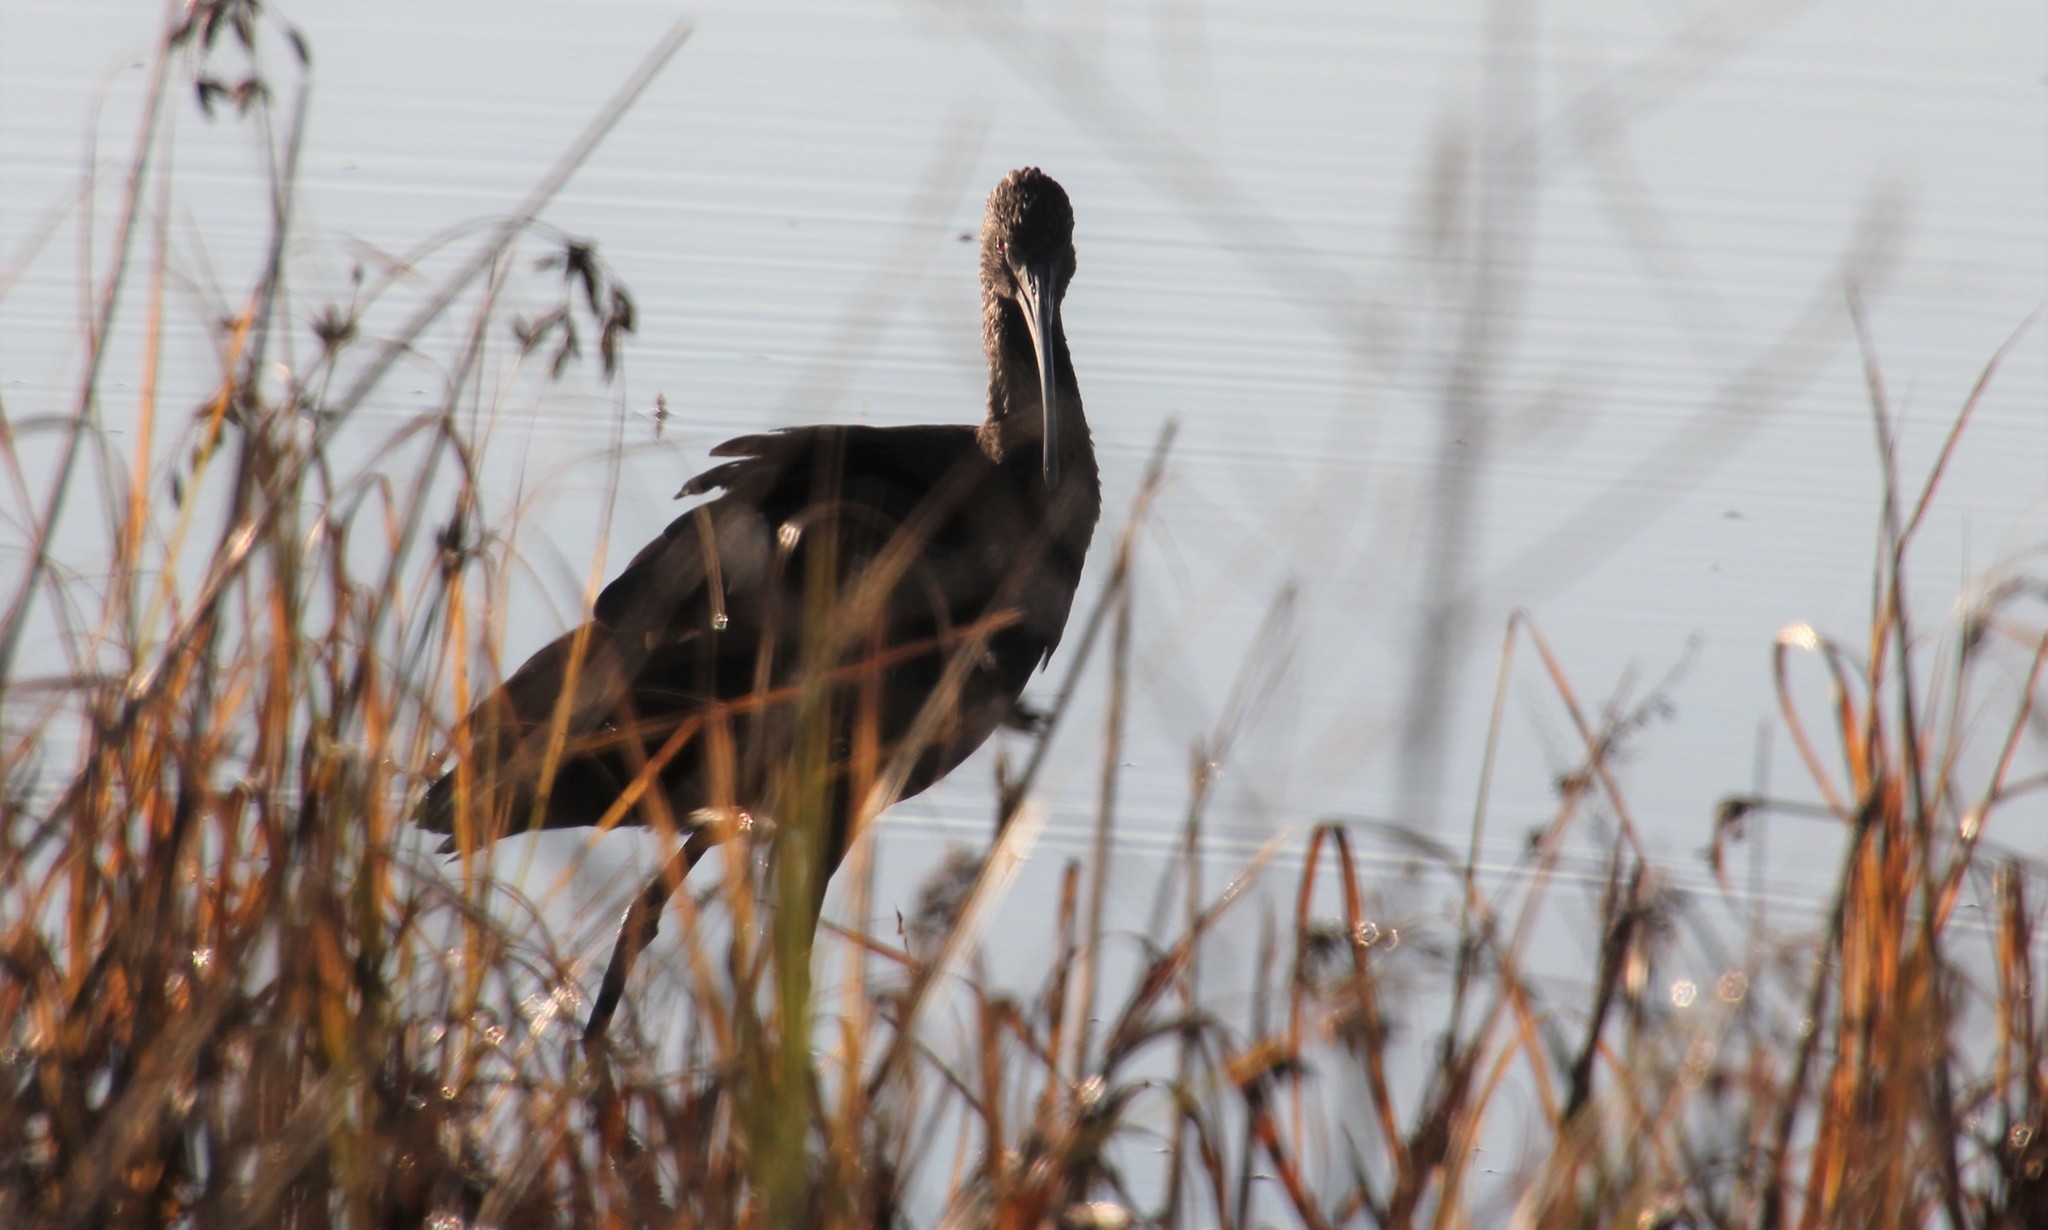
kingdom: Animalia
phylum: Chordata
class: Aves
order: Pelecaniformes
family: Threskiornithidae
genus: Plegadis
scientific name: Plegadis chihi
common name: White-faced ibis
